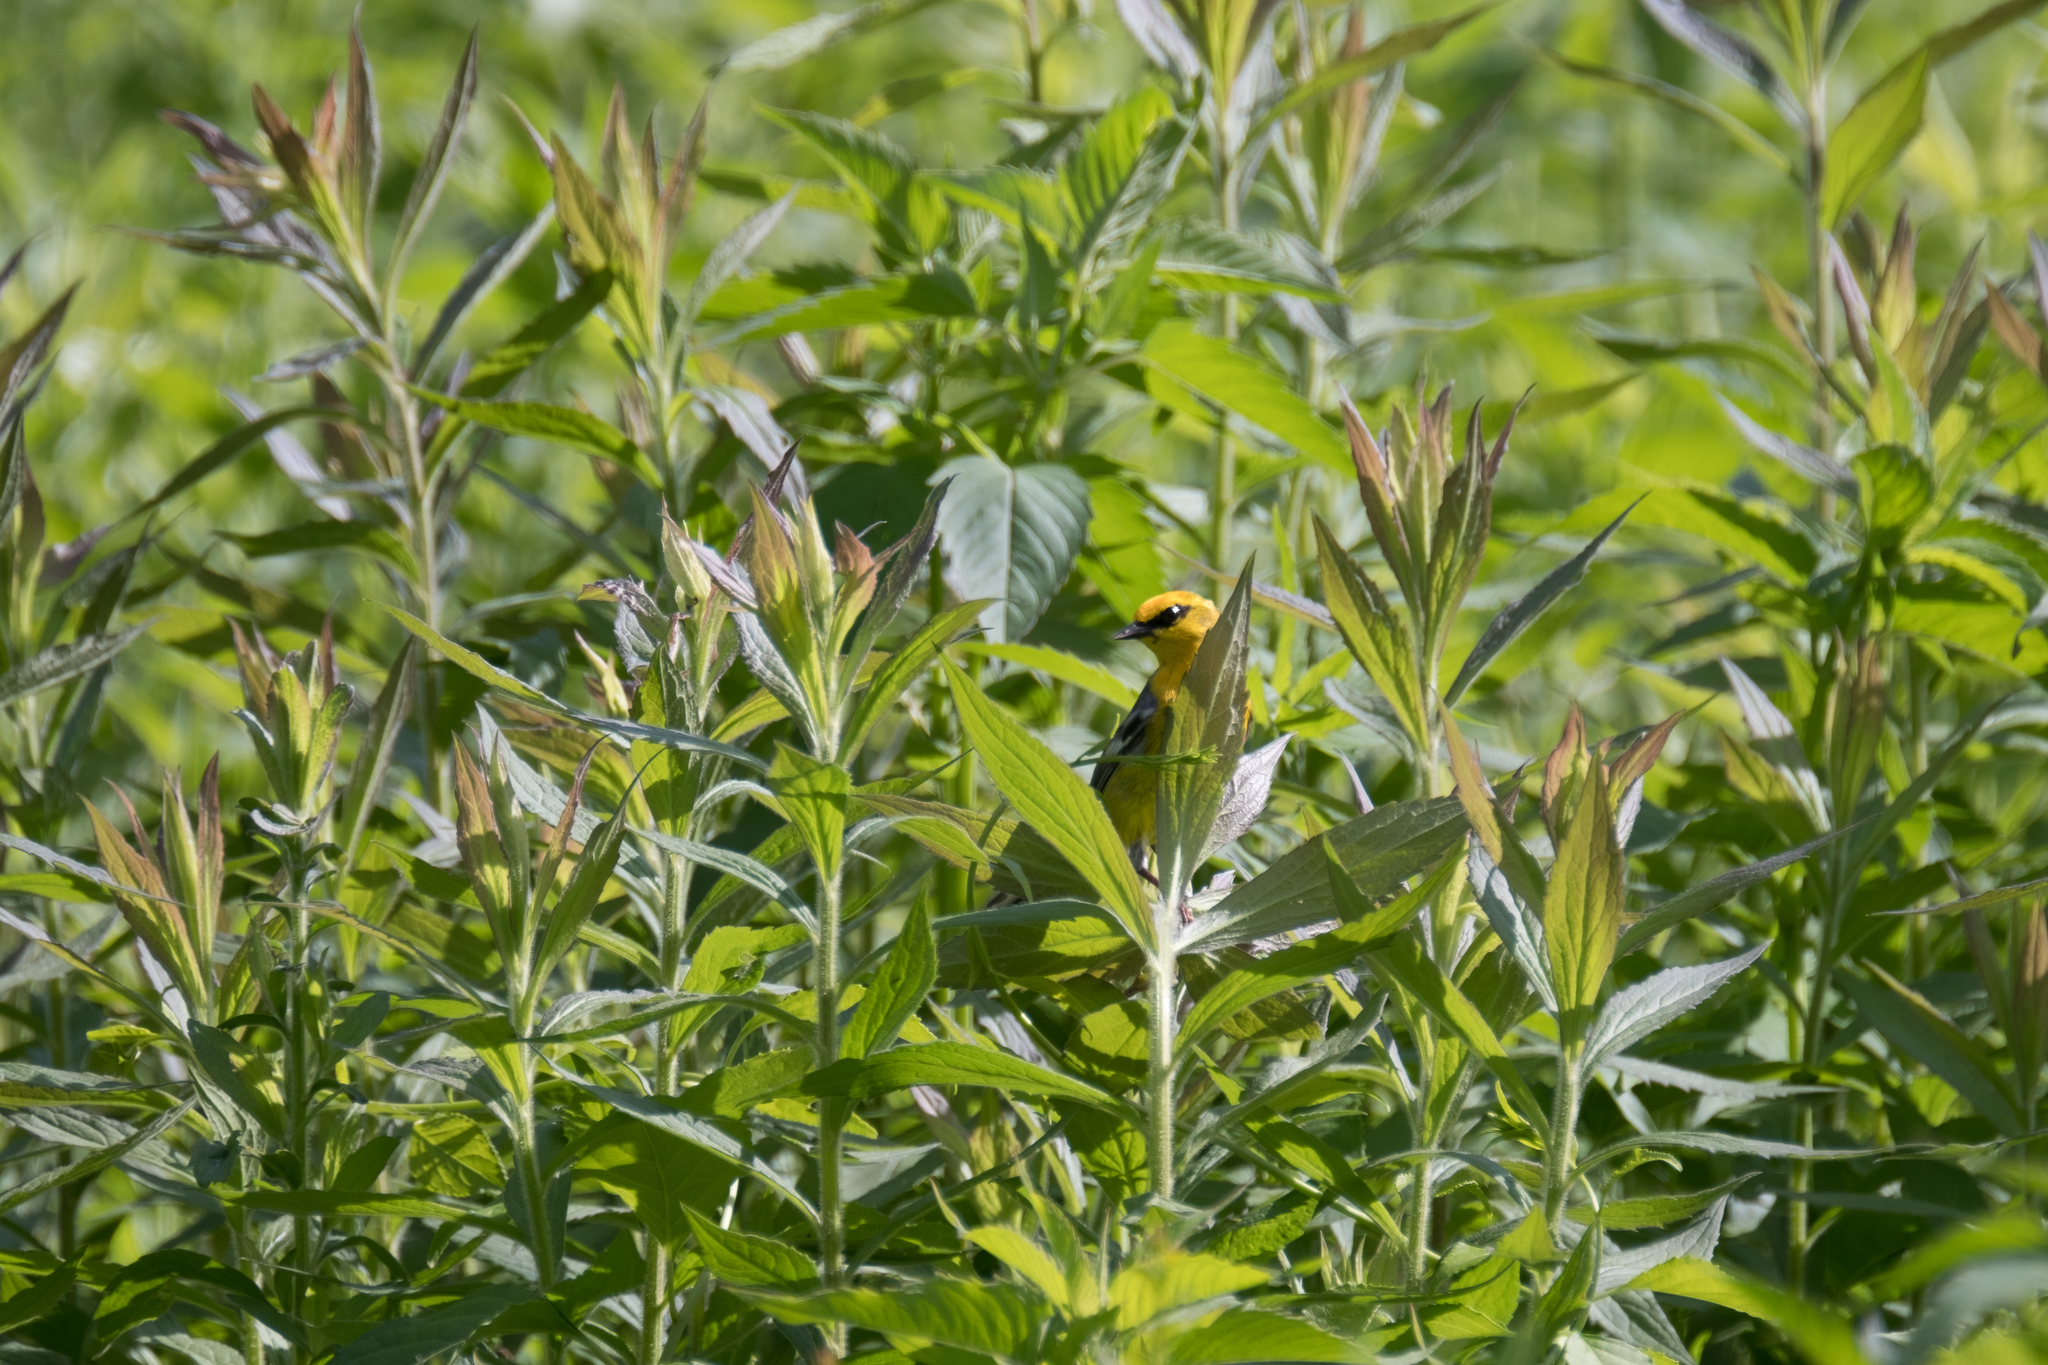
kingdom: Plantae
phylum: Tracheophyta
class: Magnoliopsida
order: Asterales
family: Asteraceae
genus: Solidago
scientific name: Solidago rugosa
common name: Rough-stemmed goldenrod
